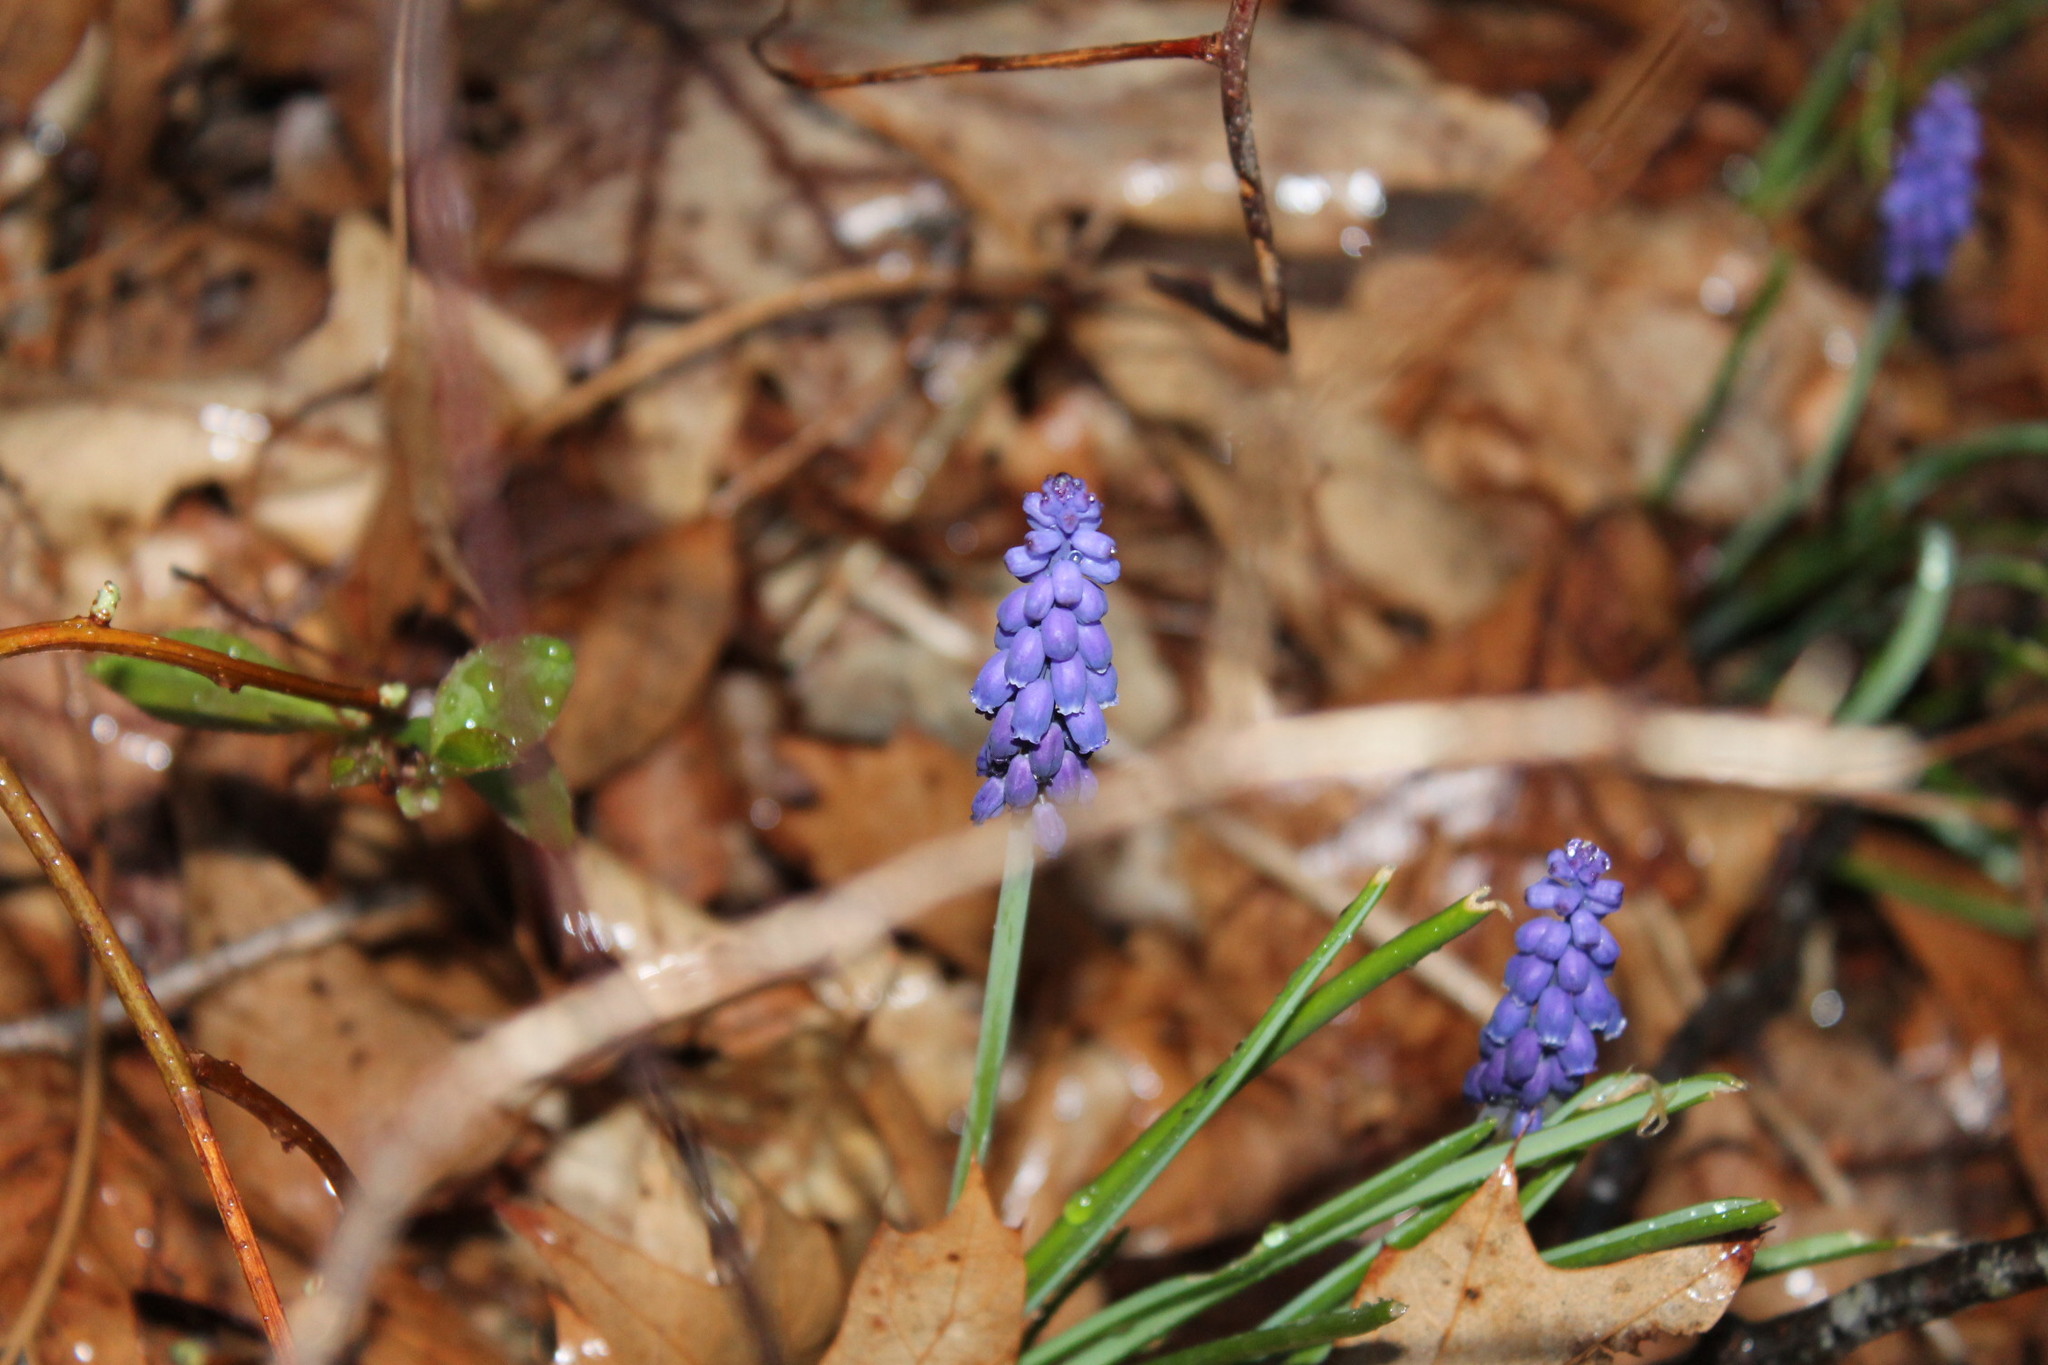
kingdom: Plantae
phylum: Tracheophyta
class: Liliopsida
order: Asparagales
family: Asparagaceae
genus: Muscari
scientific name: Muscari botryoides
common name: Compact grape-hyacinth
